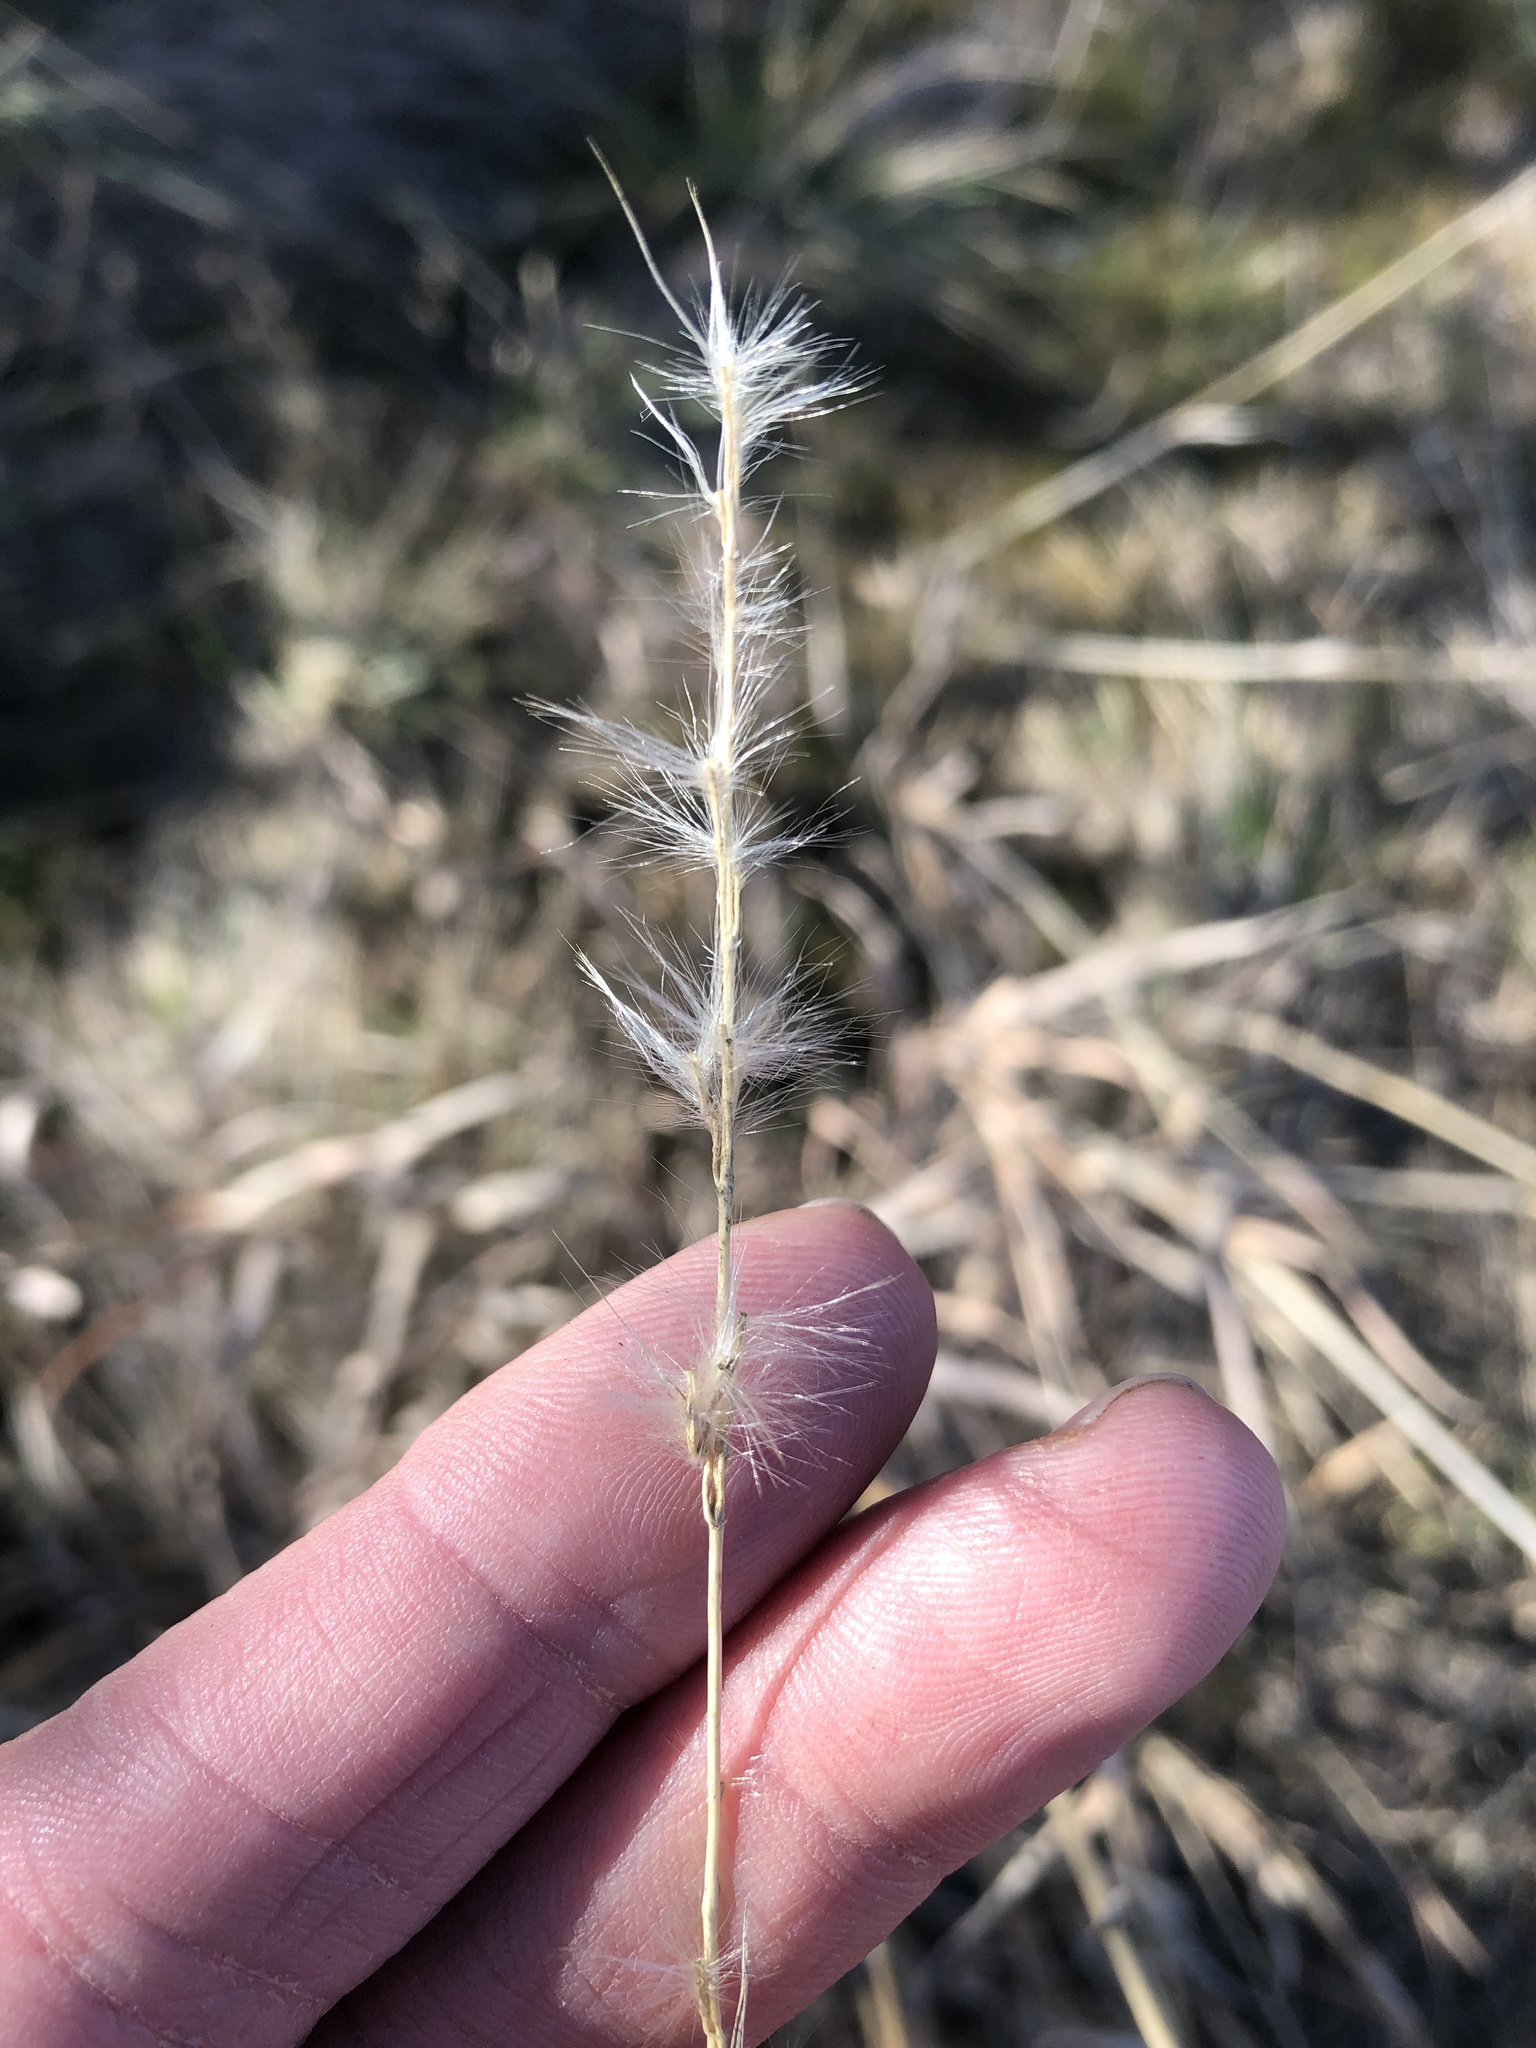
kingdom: Plantae
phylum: Tracheophyta
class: Liliopsida
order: Poales
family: Poaceae
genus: Bothriochloa
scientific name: Bothriochloa torreyana
